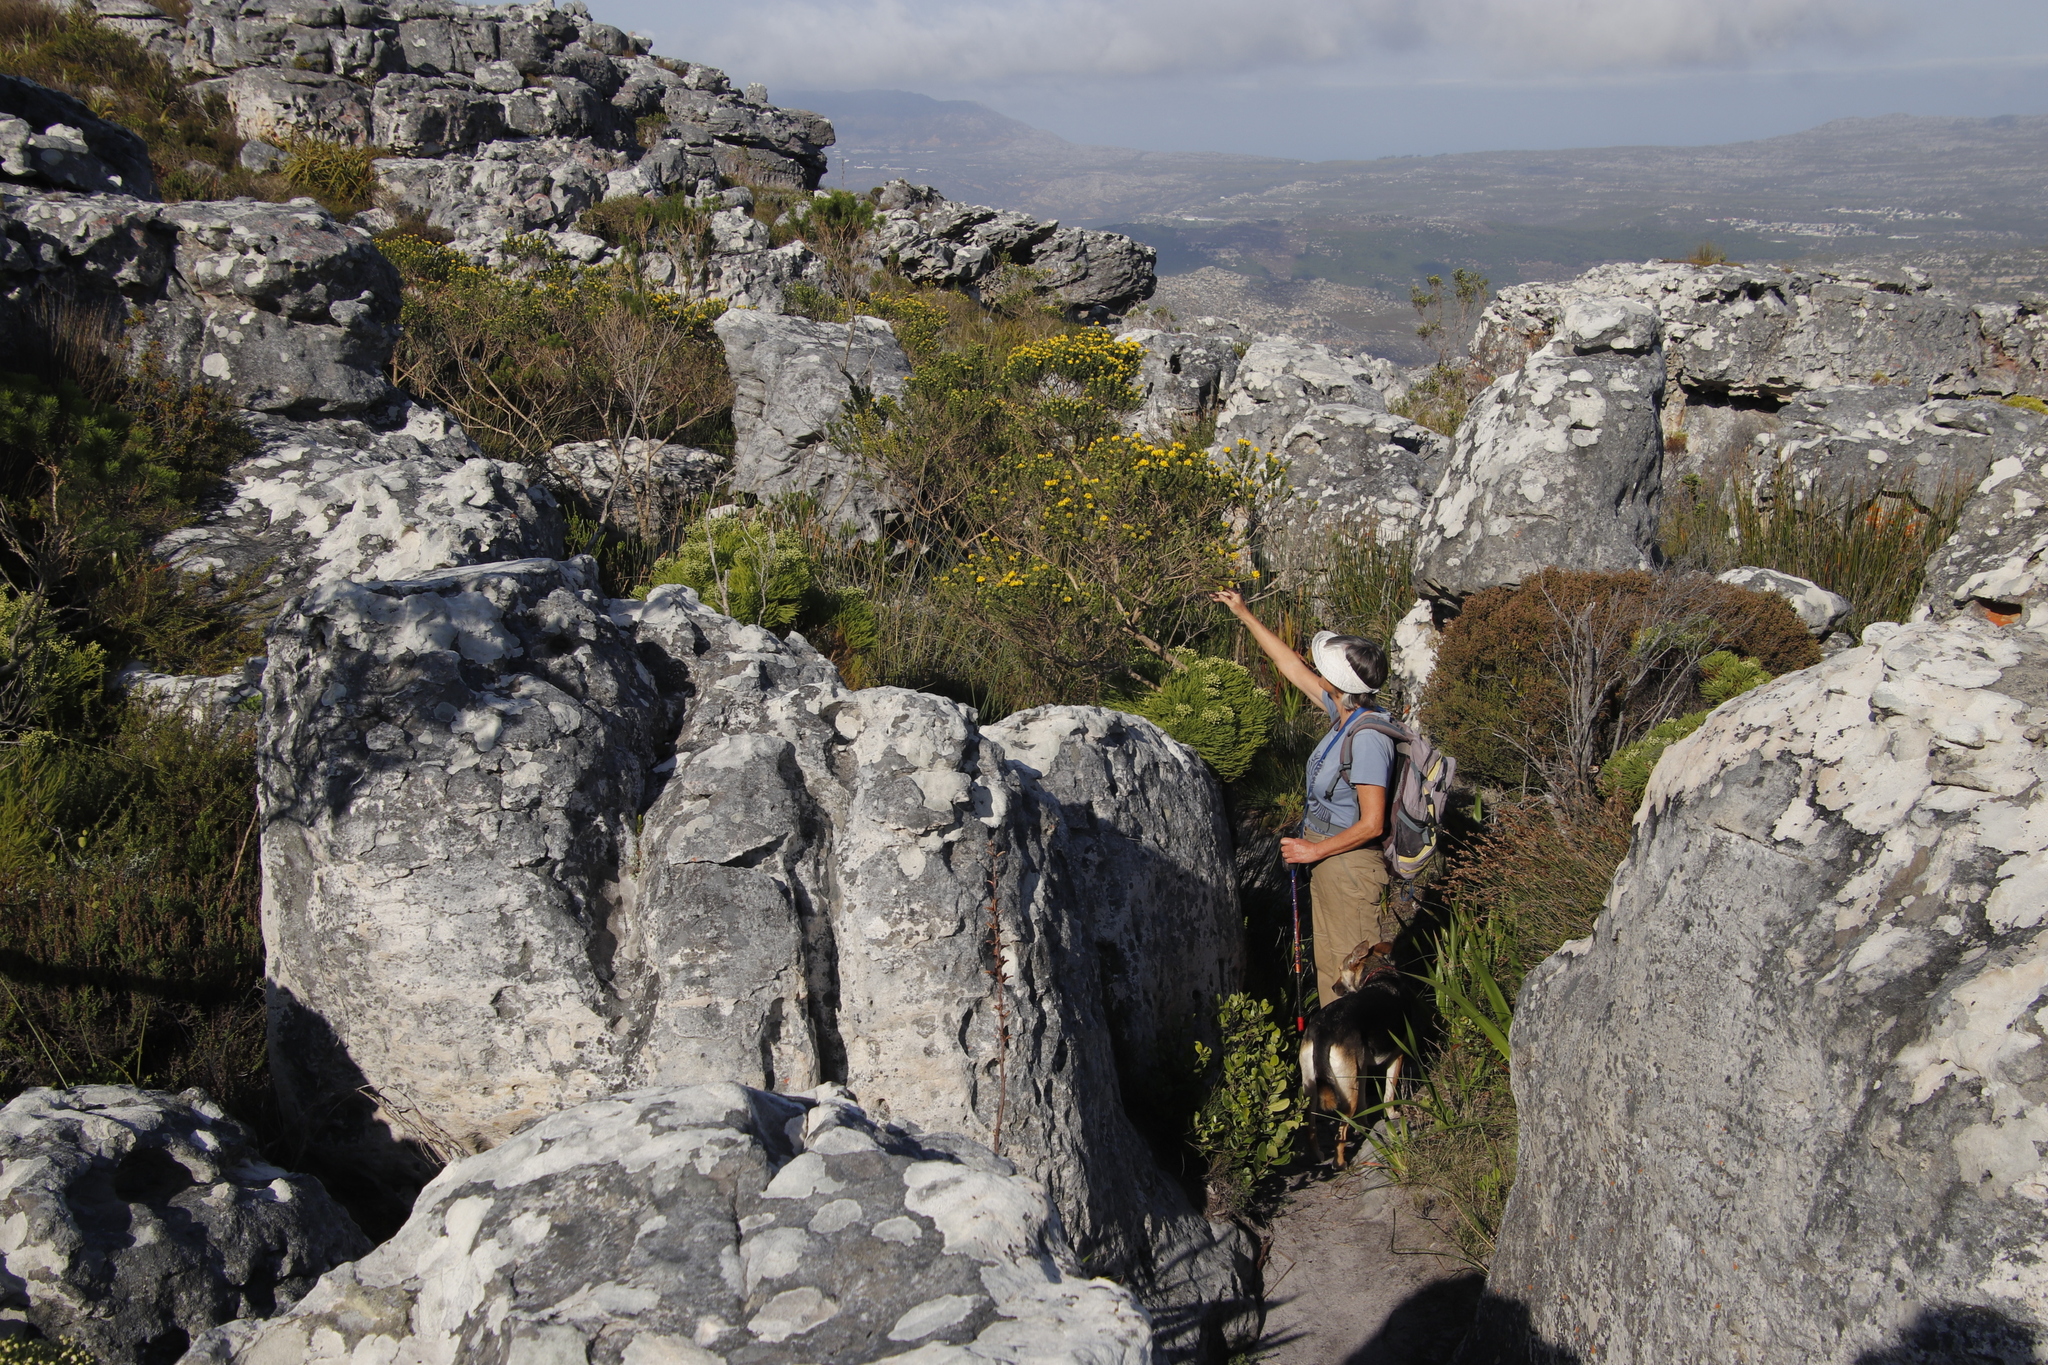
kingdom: Plantae
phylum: Tracheophyta
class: Magnoliopsida
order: Fabales
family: Fabaceae
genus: Aspalathus
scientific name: Aspalathus capitata
